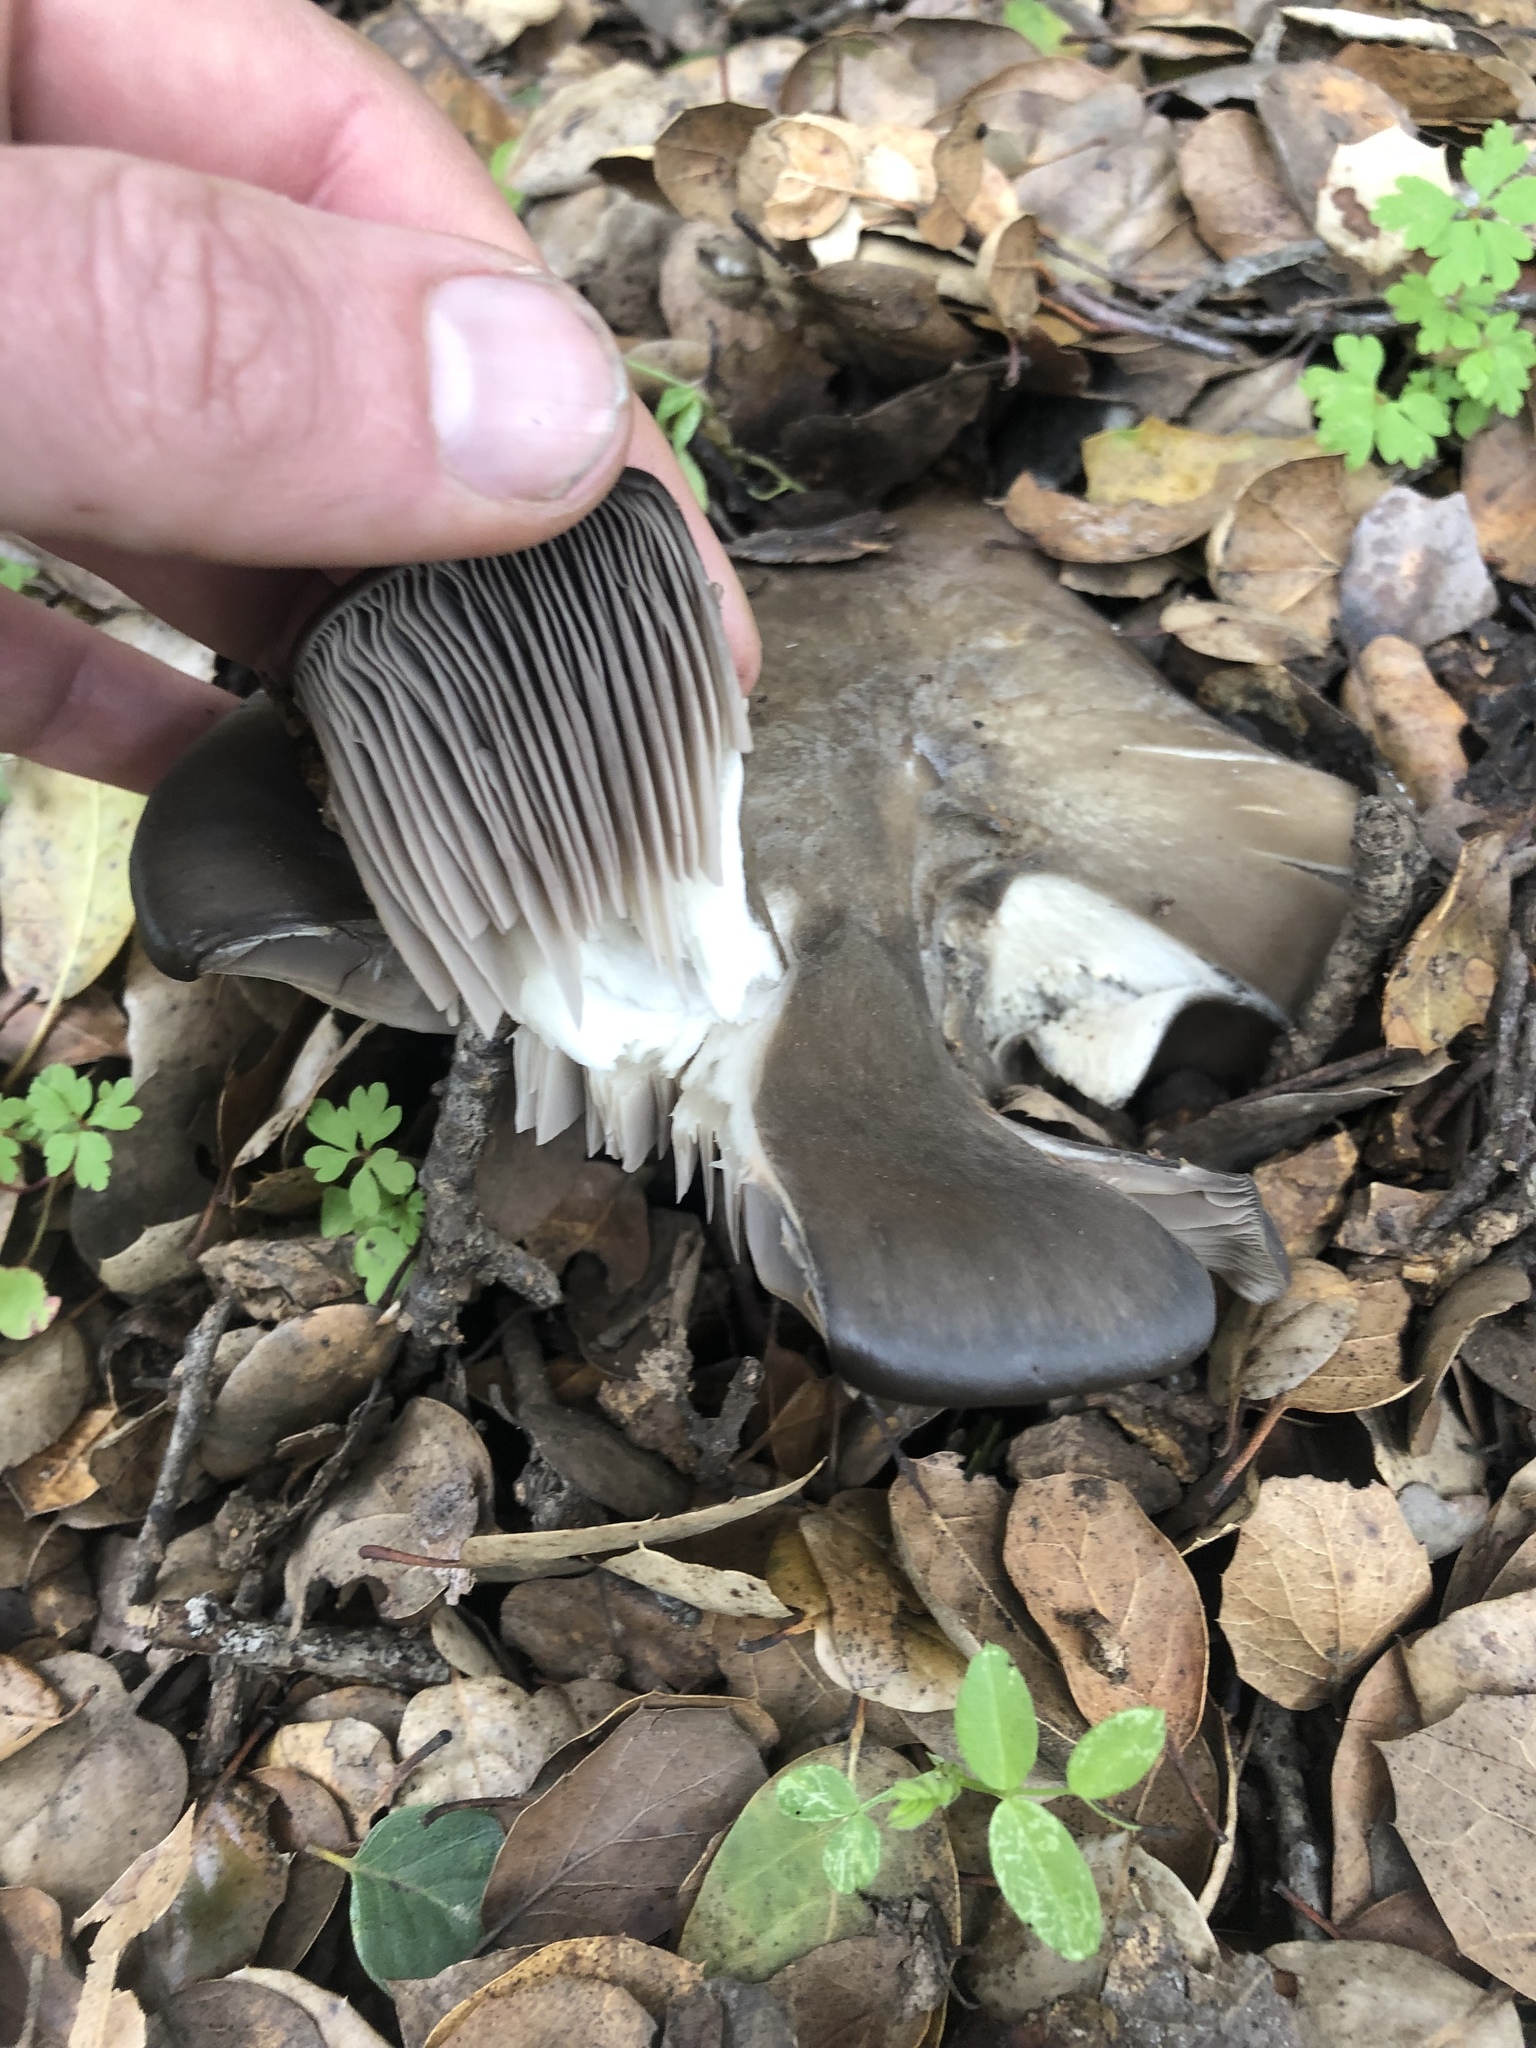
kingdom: Fungi
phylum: Basidiomycota
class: Agaricomycetes
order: Agaricales
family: Entolomataceae
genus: Entoloma
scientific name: Entoloma ferruginans
